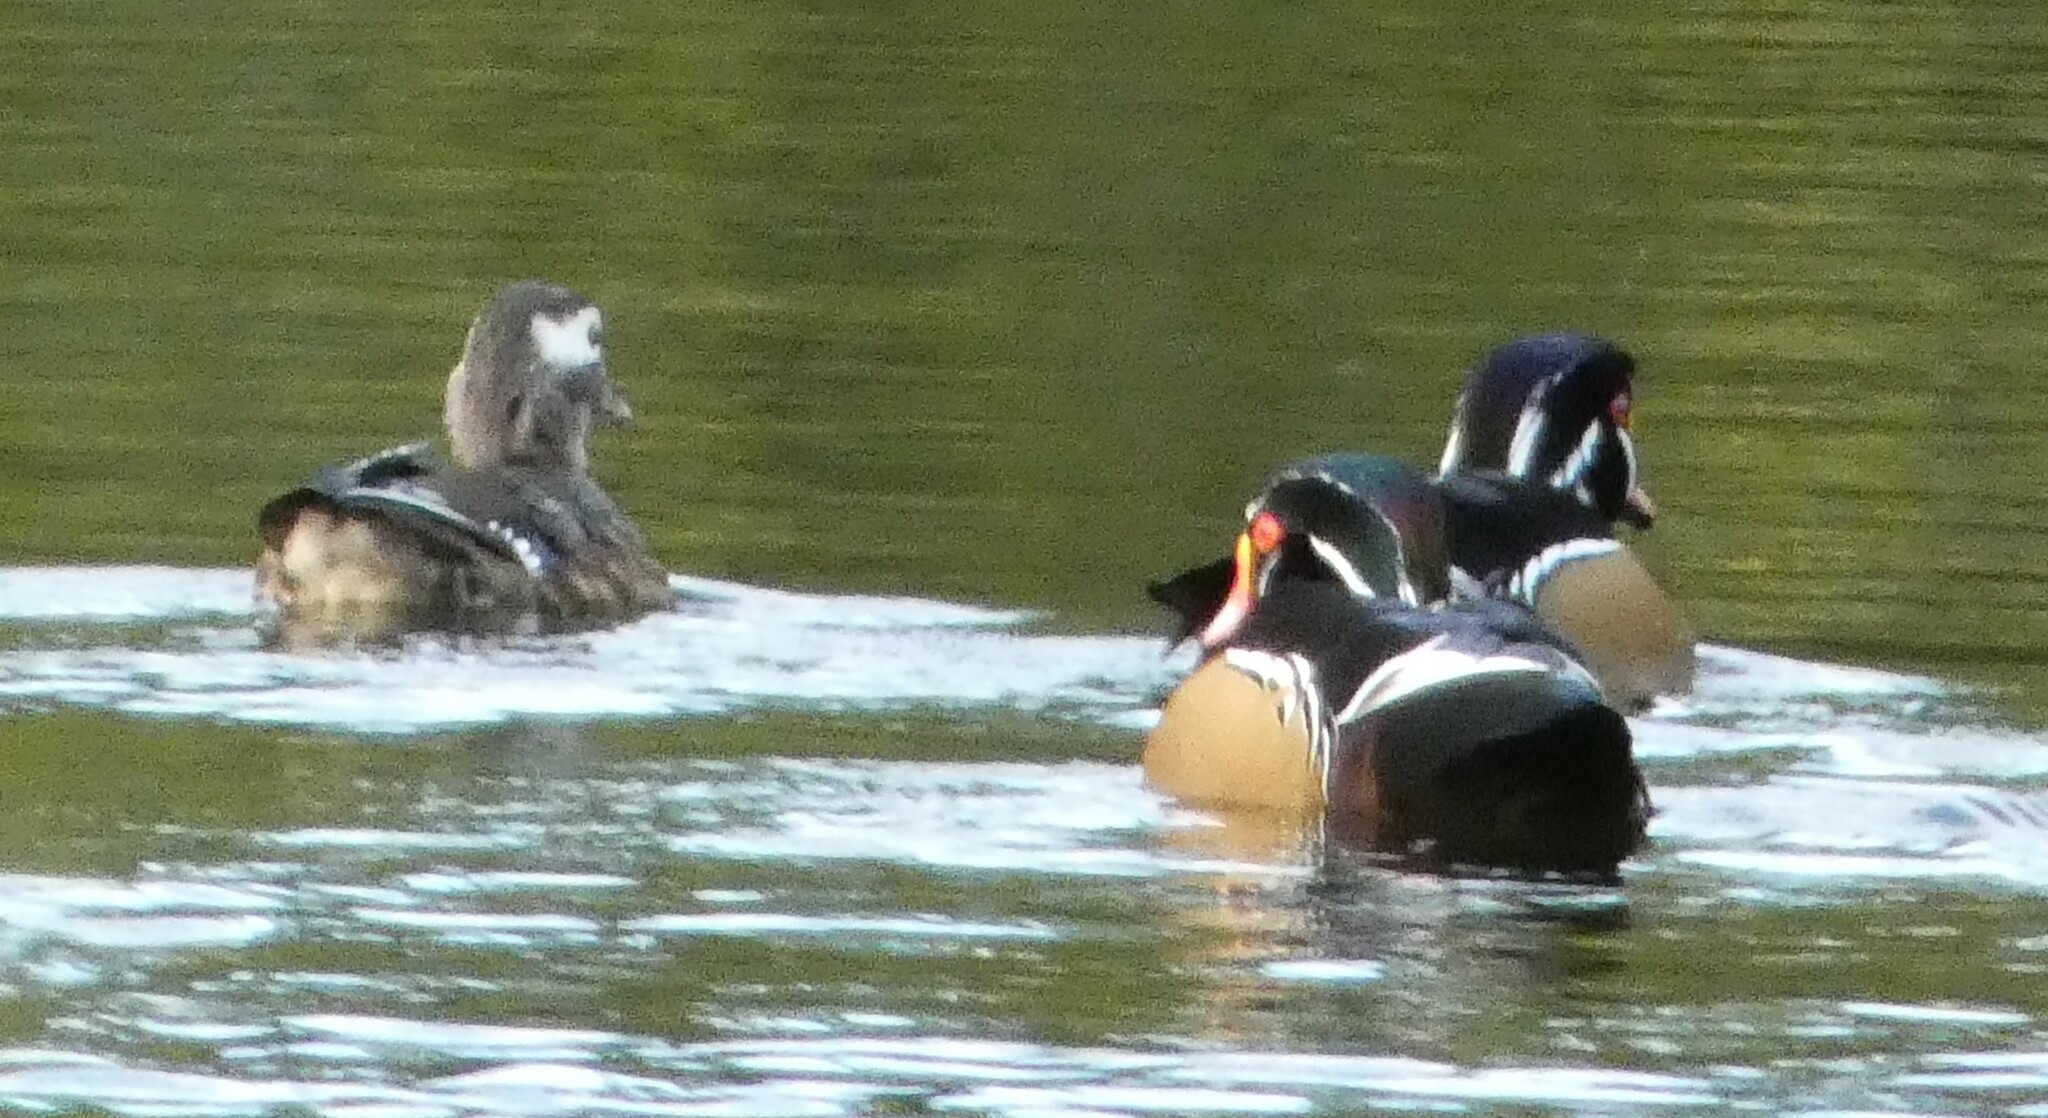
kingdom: Animalia
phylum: Chordata
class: Aves
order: Anseriformes
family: Anatidae
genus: Aix
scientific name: Aix sponsa
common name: Wood duck
